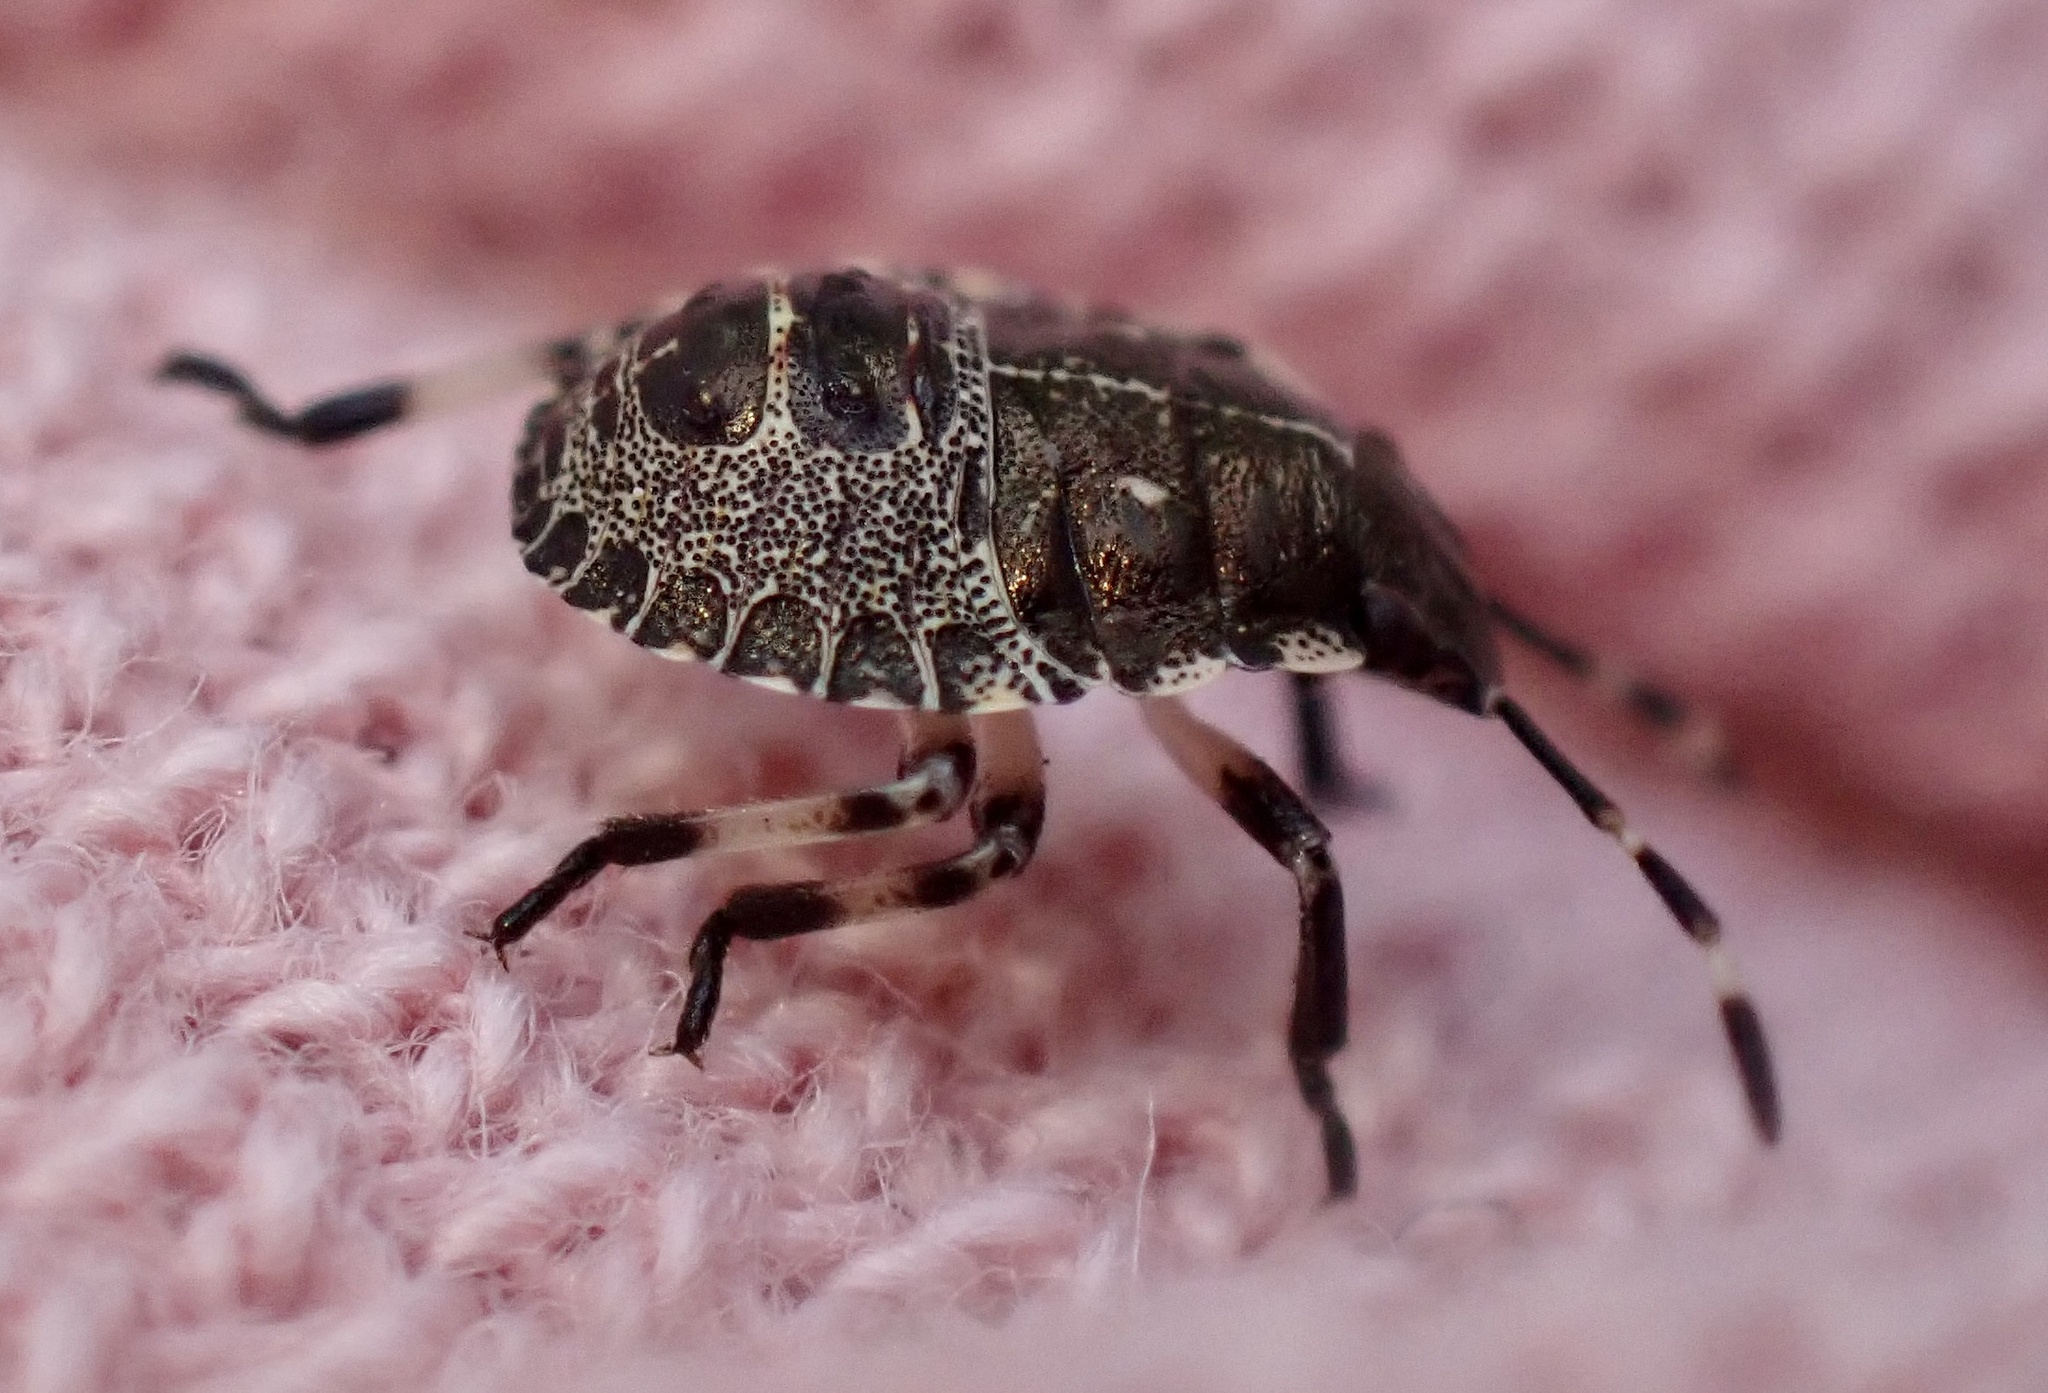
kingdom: Animalia
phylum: Arthropoda
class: Insecta
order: Hemiptera
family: Pentatomidae
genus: Rhaphigaster
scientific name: Rhaphigaster nebulosa
